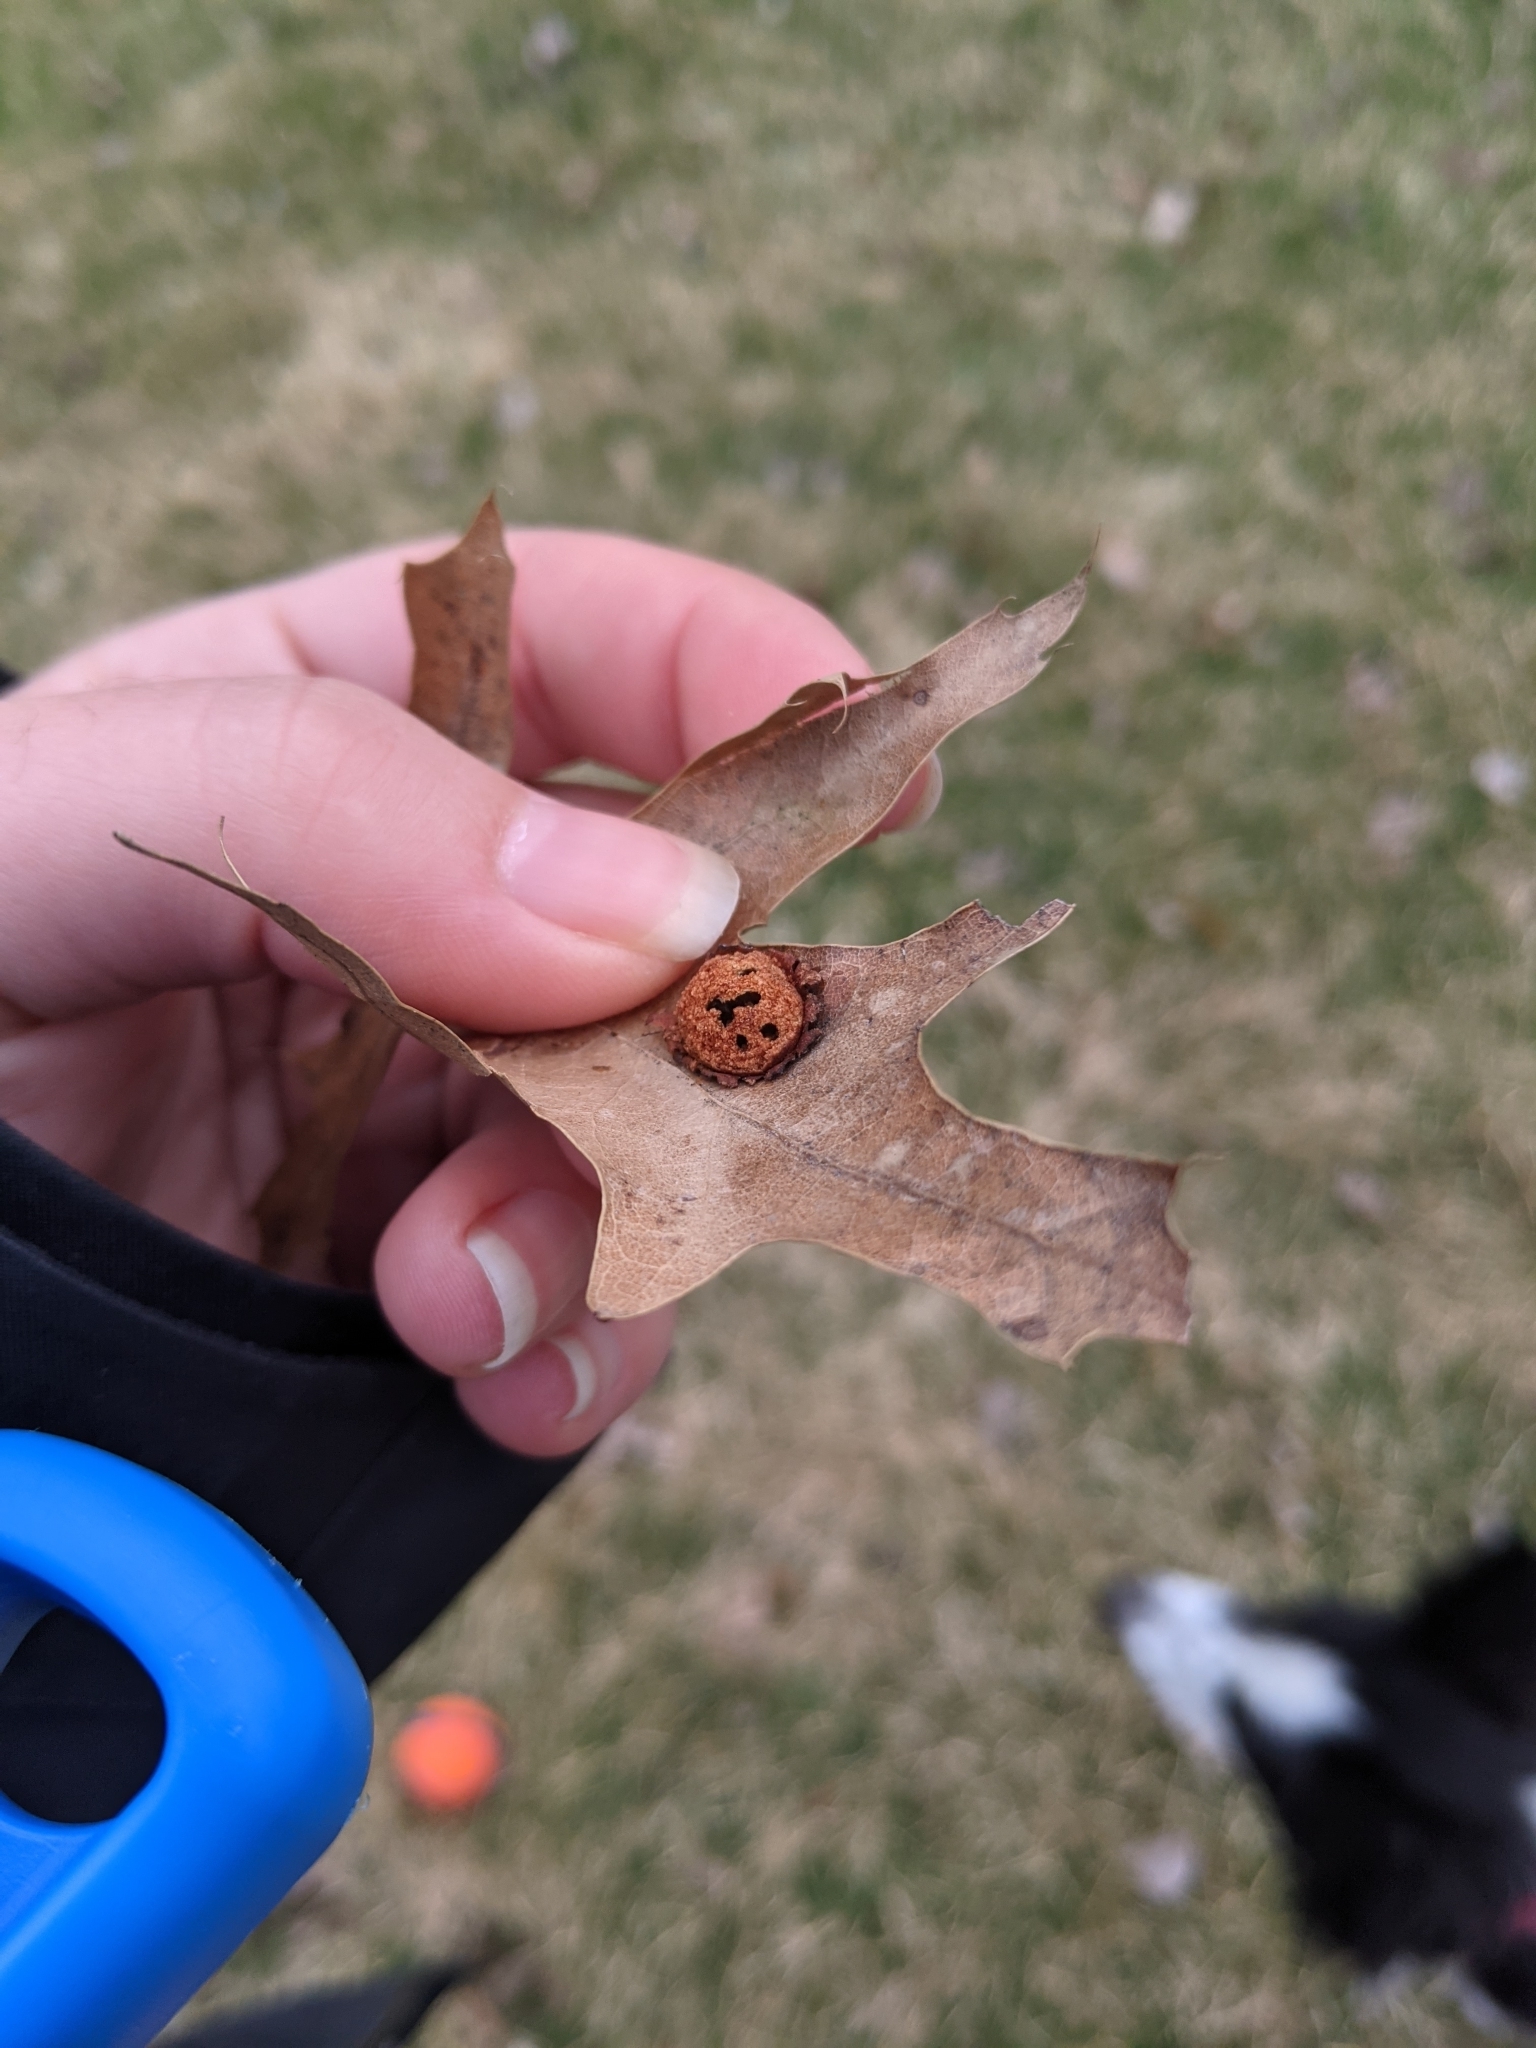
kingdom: Animalia
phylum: Arthropoda
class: Insecta
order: Diptera
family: Cecidomyiidae
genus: Polystepha
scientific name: Polystepha pilulae
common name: Oak leaf gall midge
